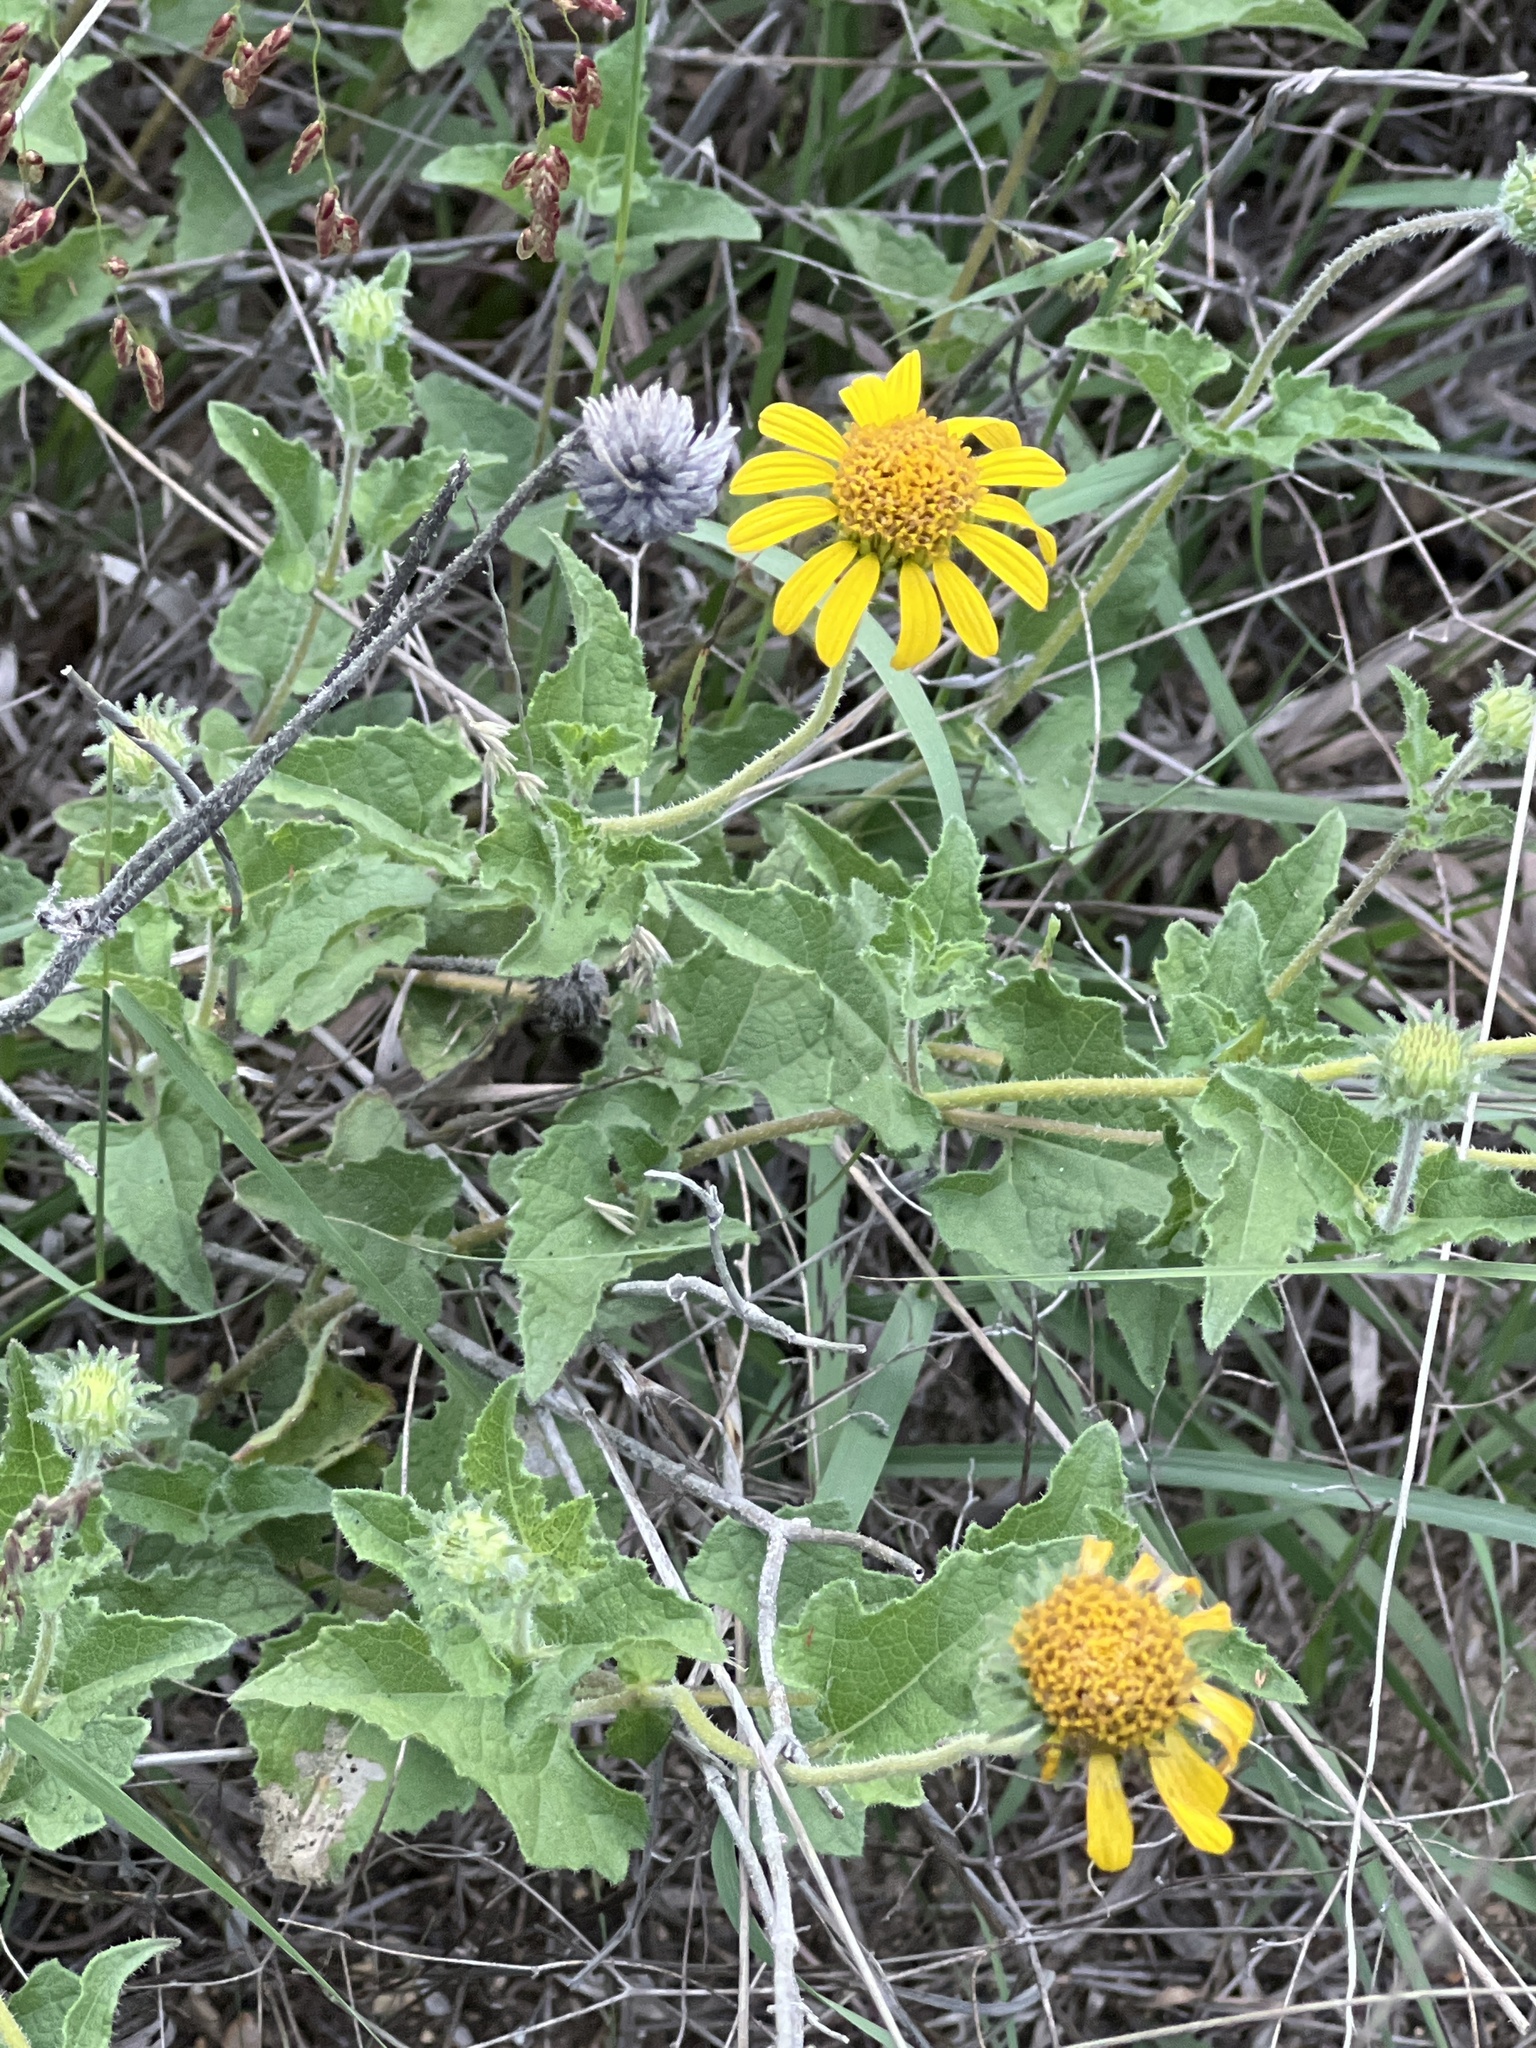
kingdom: Plantae
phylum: Tracheophyta
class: Magnoliopsida
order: Asterales
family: Asteraceae
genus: Simsia
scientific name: Simsia calva
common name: Awnless bush-sunflower
